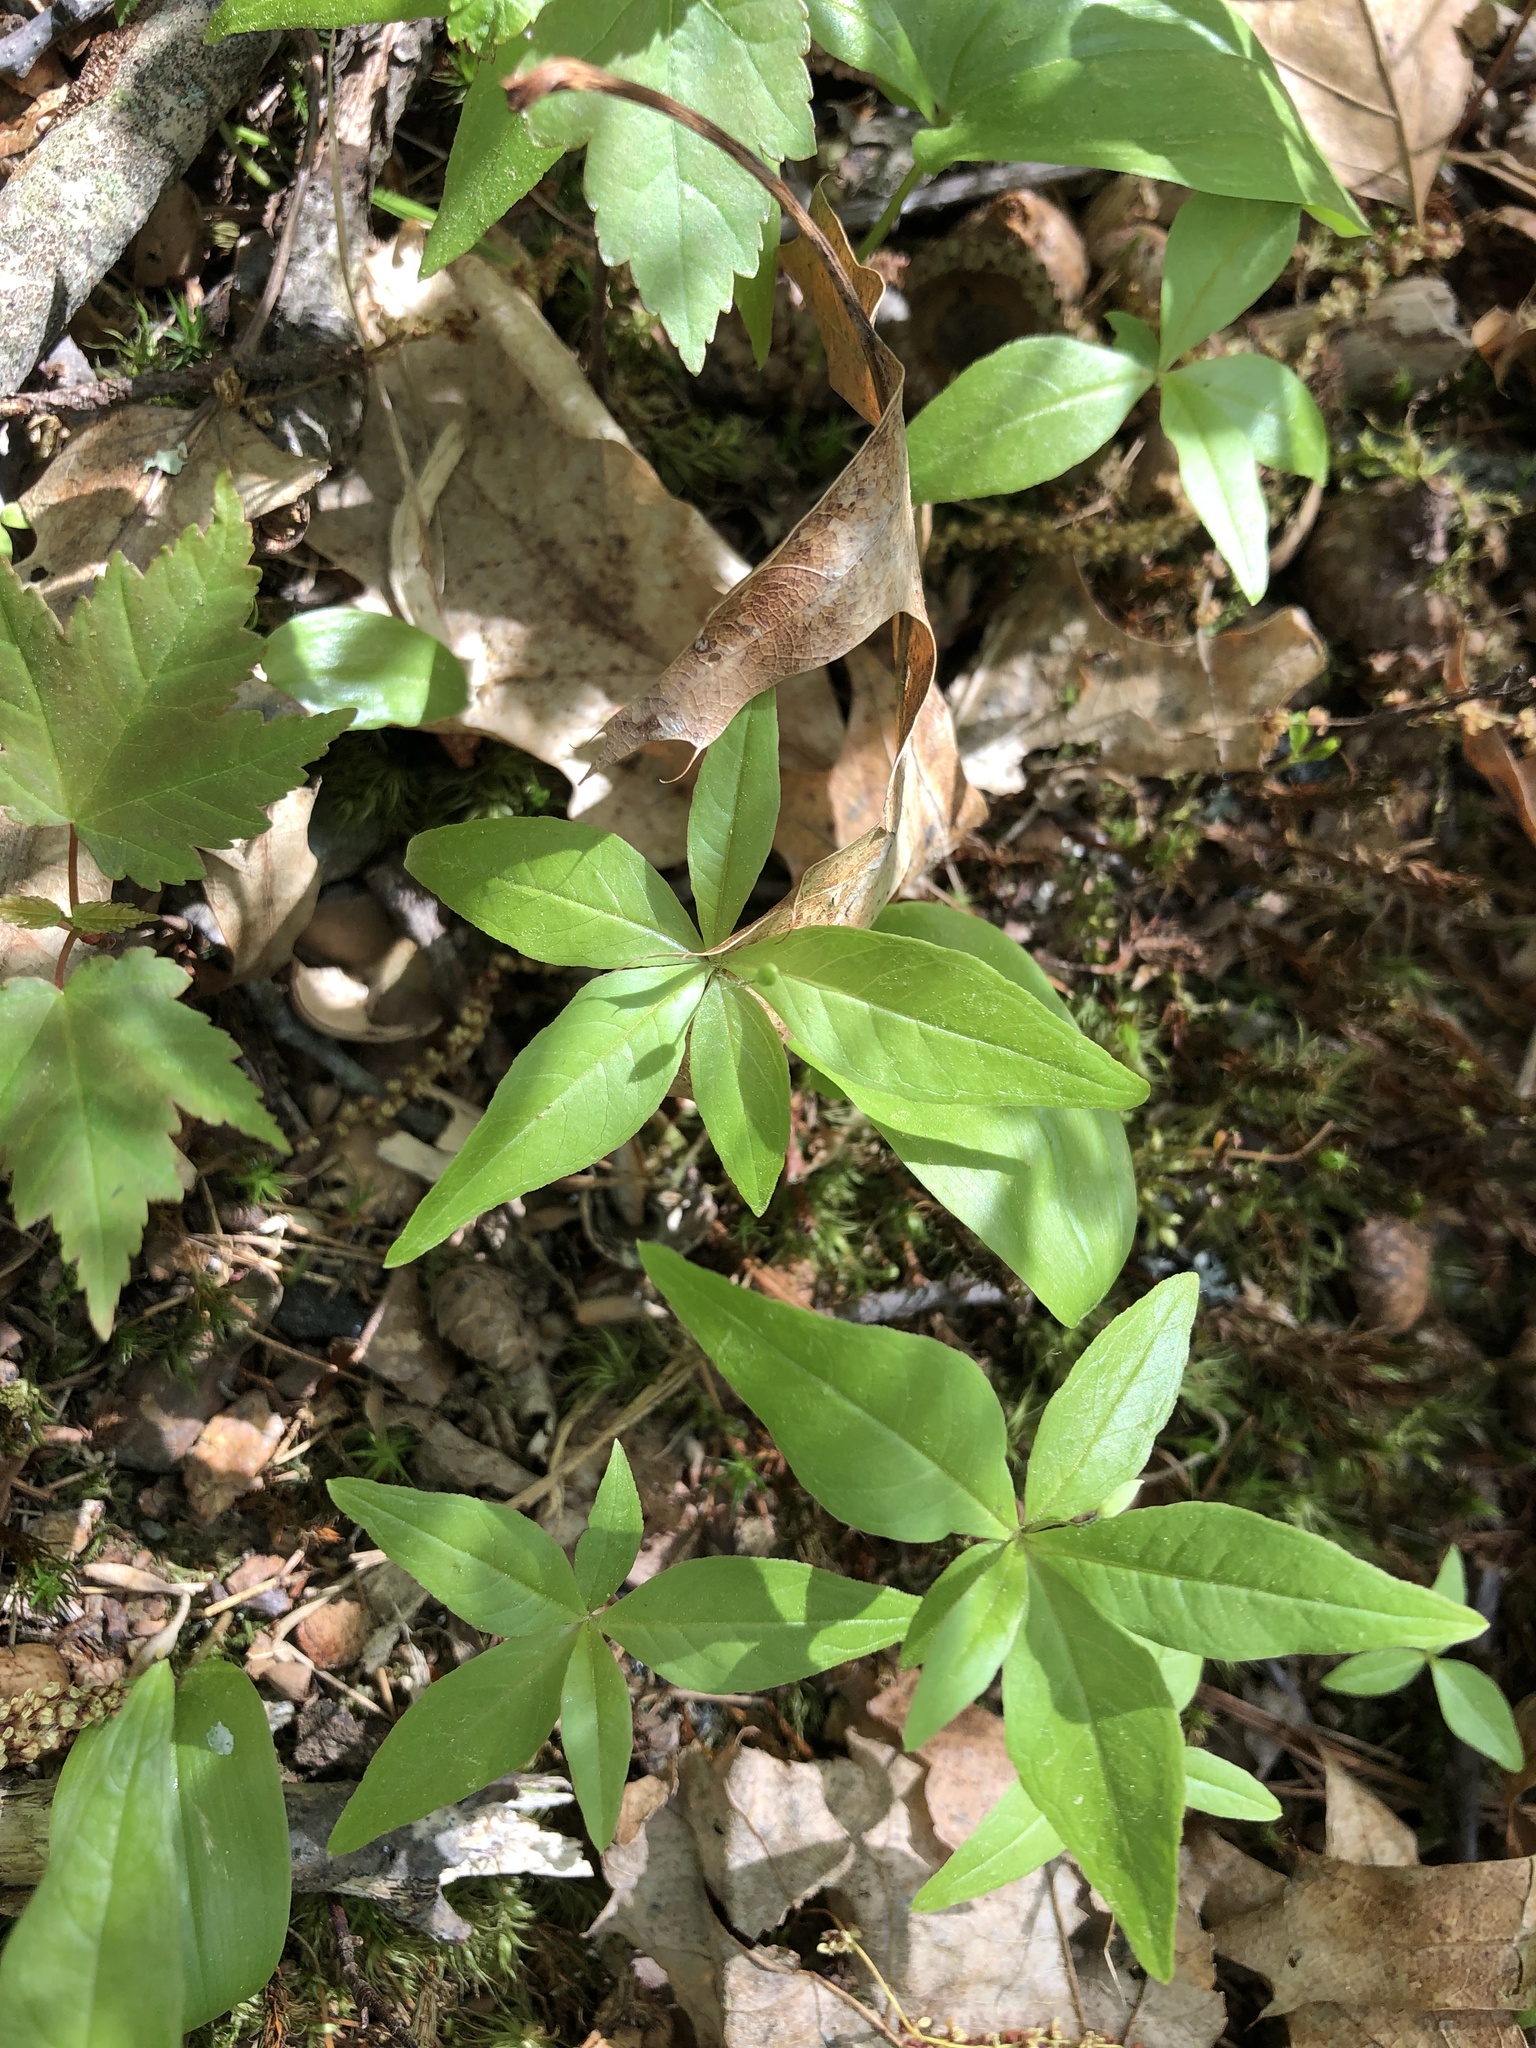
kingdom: Plantae
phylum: Tracheophyta
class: Magnoliopsida
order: Ericales
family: Primulaceae
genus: Lysimachia
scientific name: Lysimachia borealis
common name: American starflower
